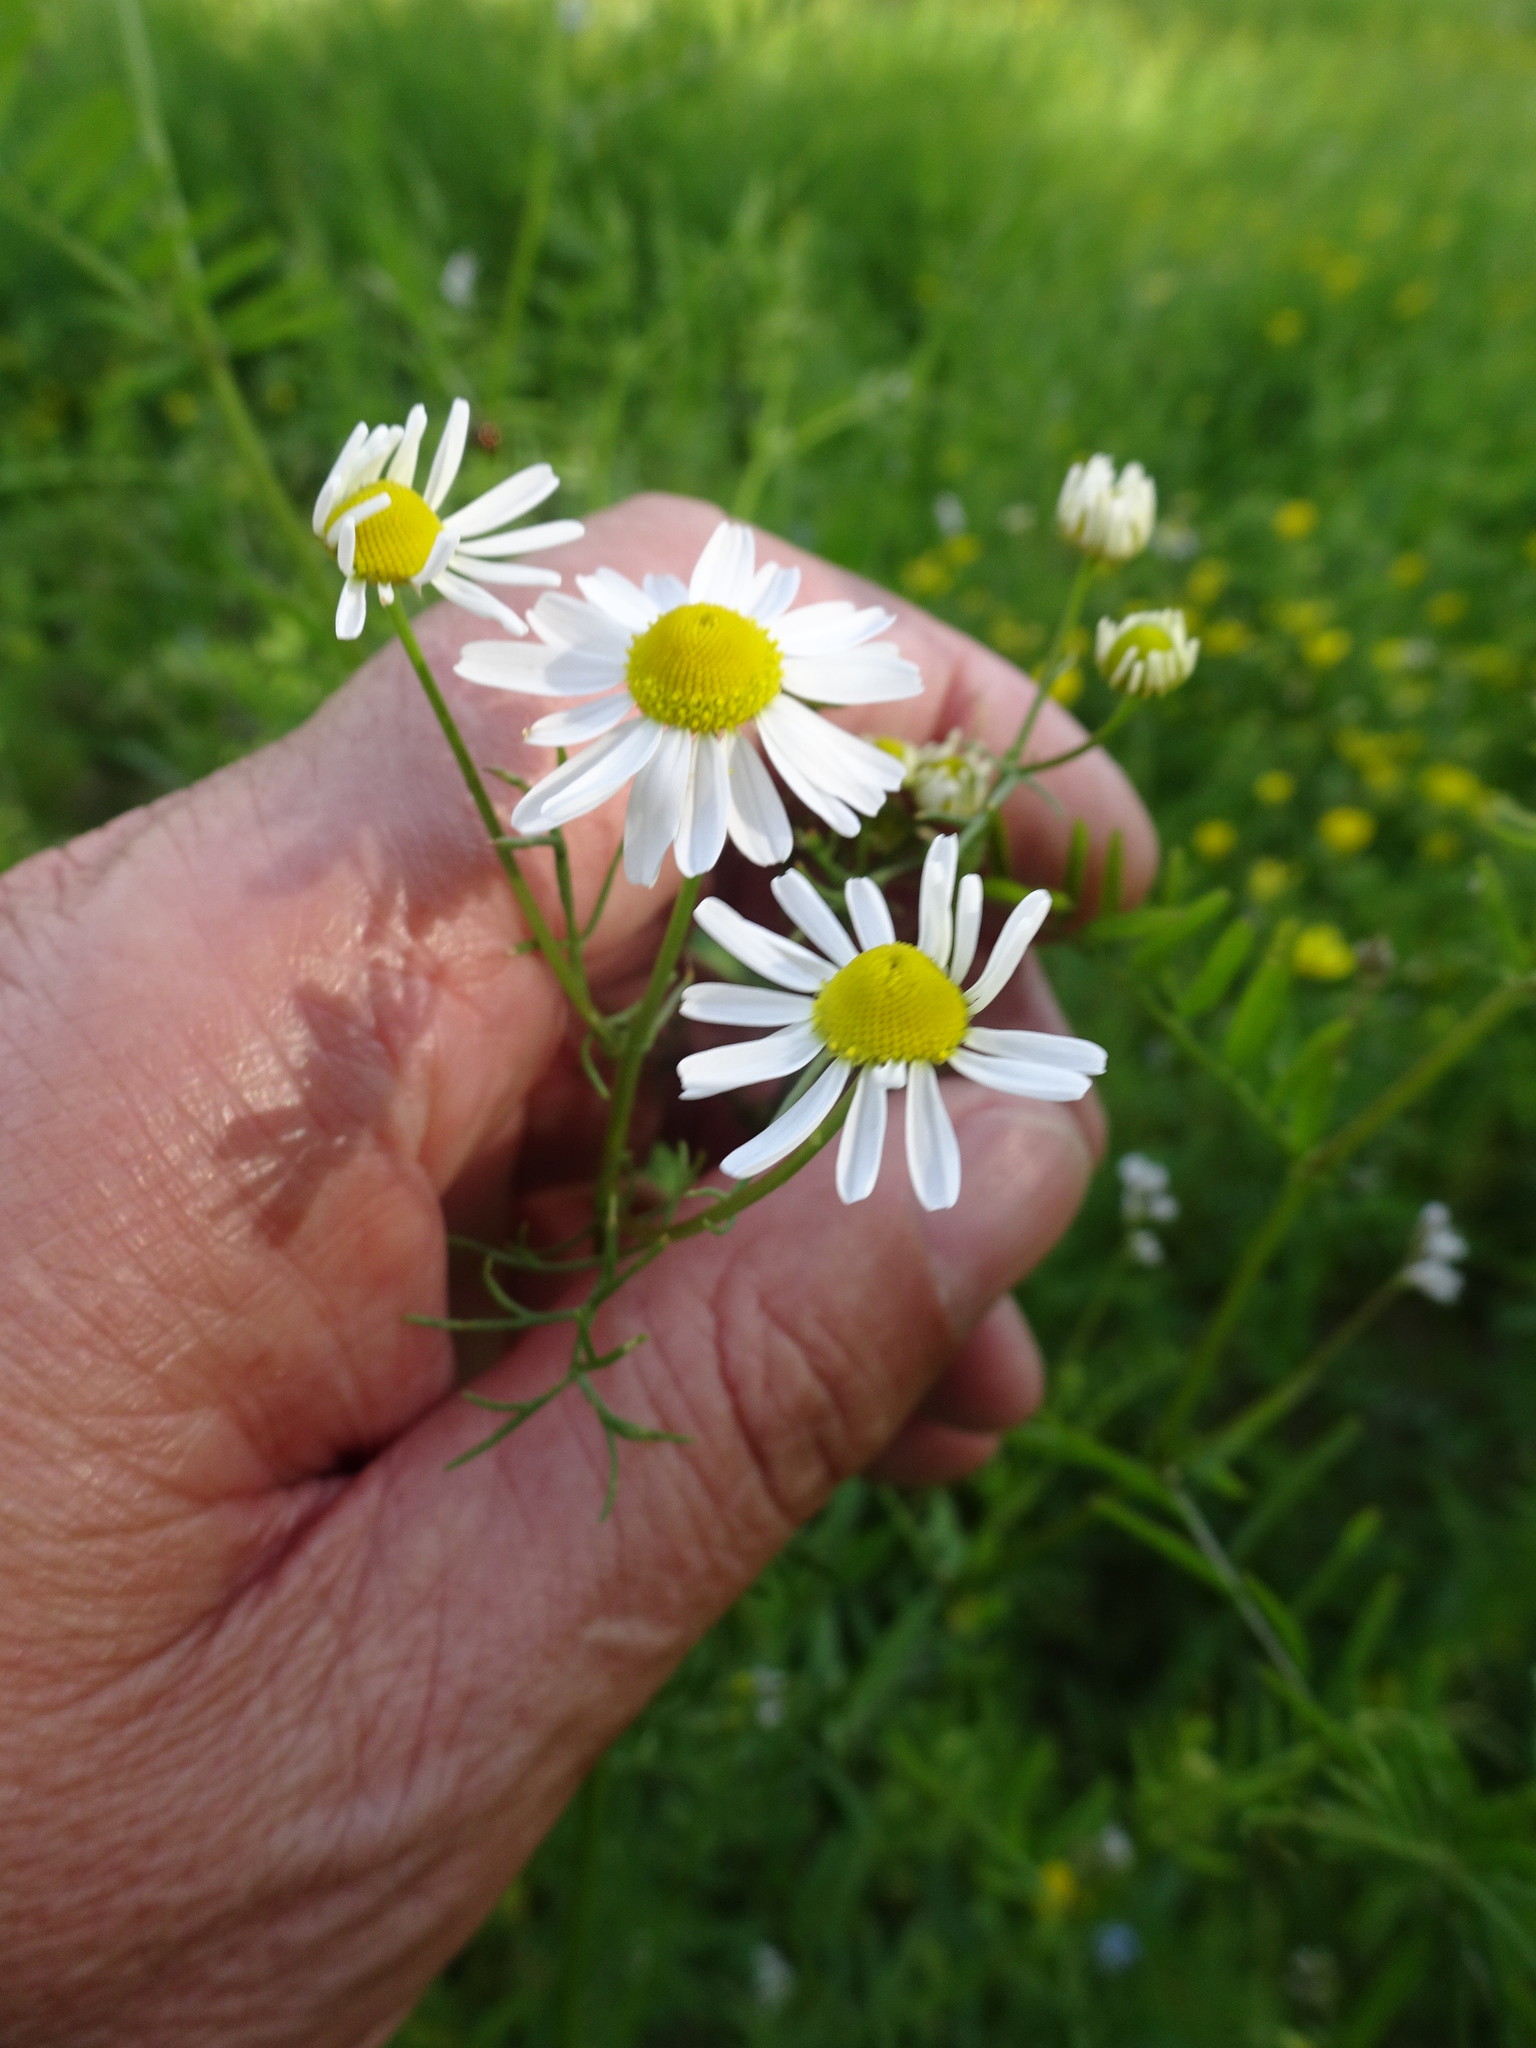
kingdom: Plantae
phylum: Tracheophyta
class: Magnoliopsida
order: Asterales
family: Asteraceae
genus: Matricaria
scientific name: Matricaria chamomilla
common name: Scented mayweed
